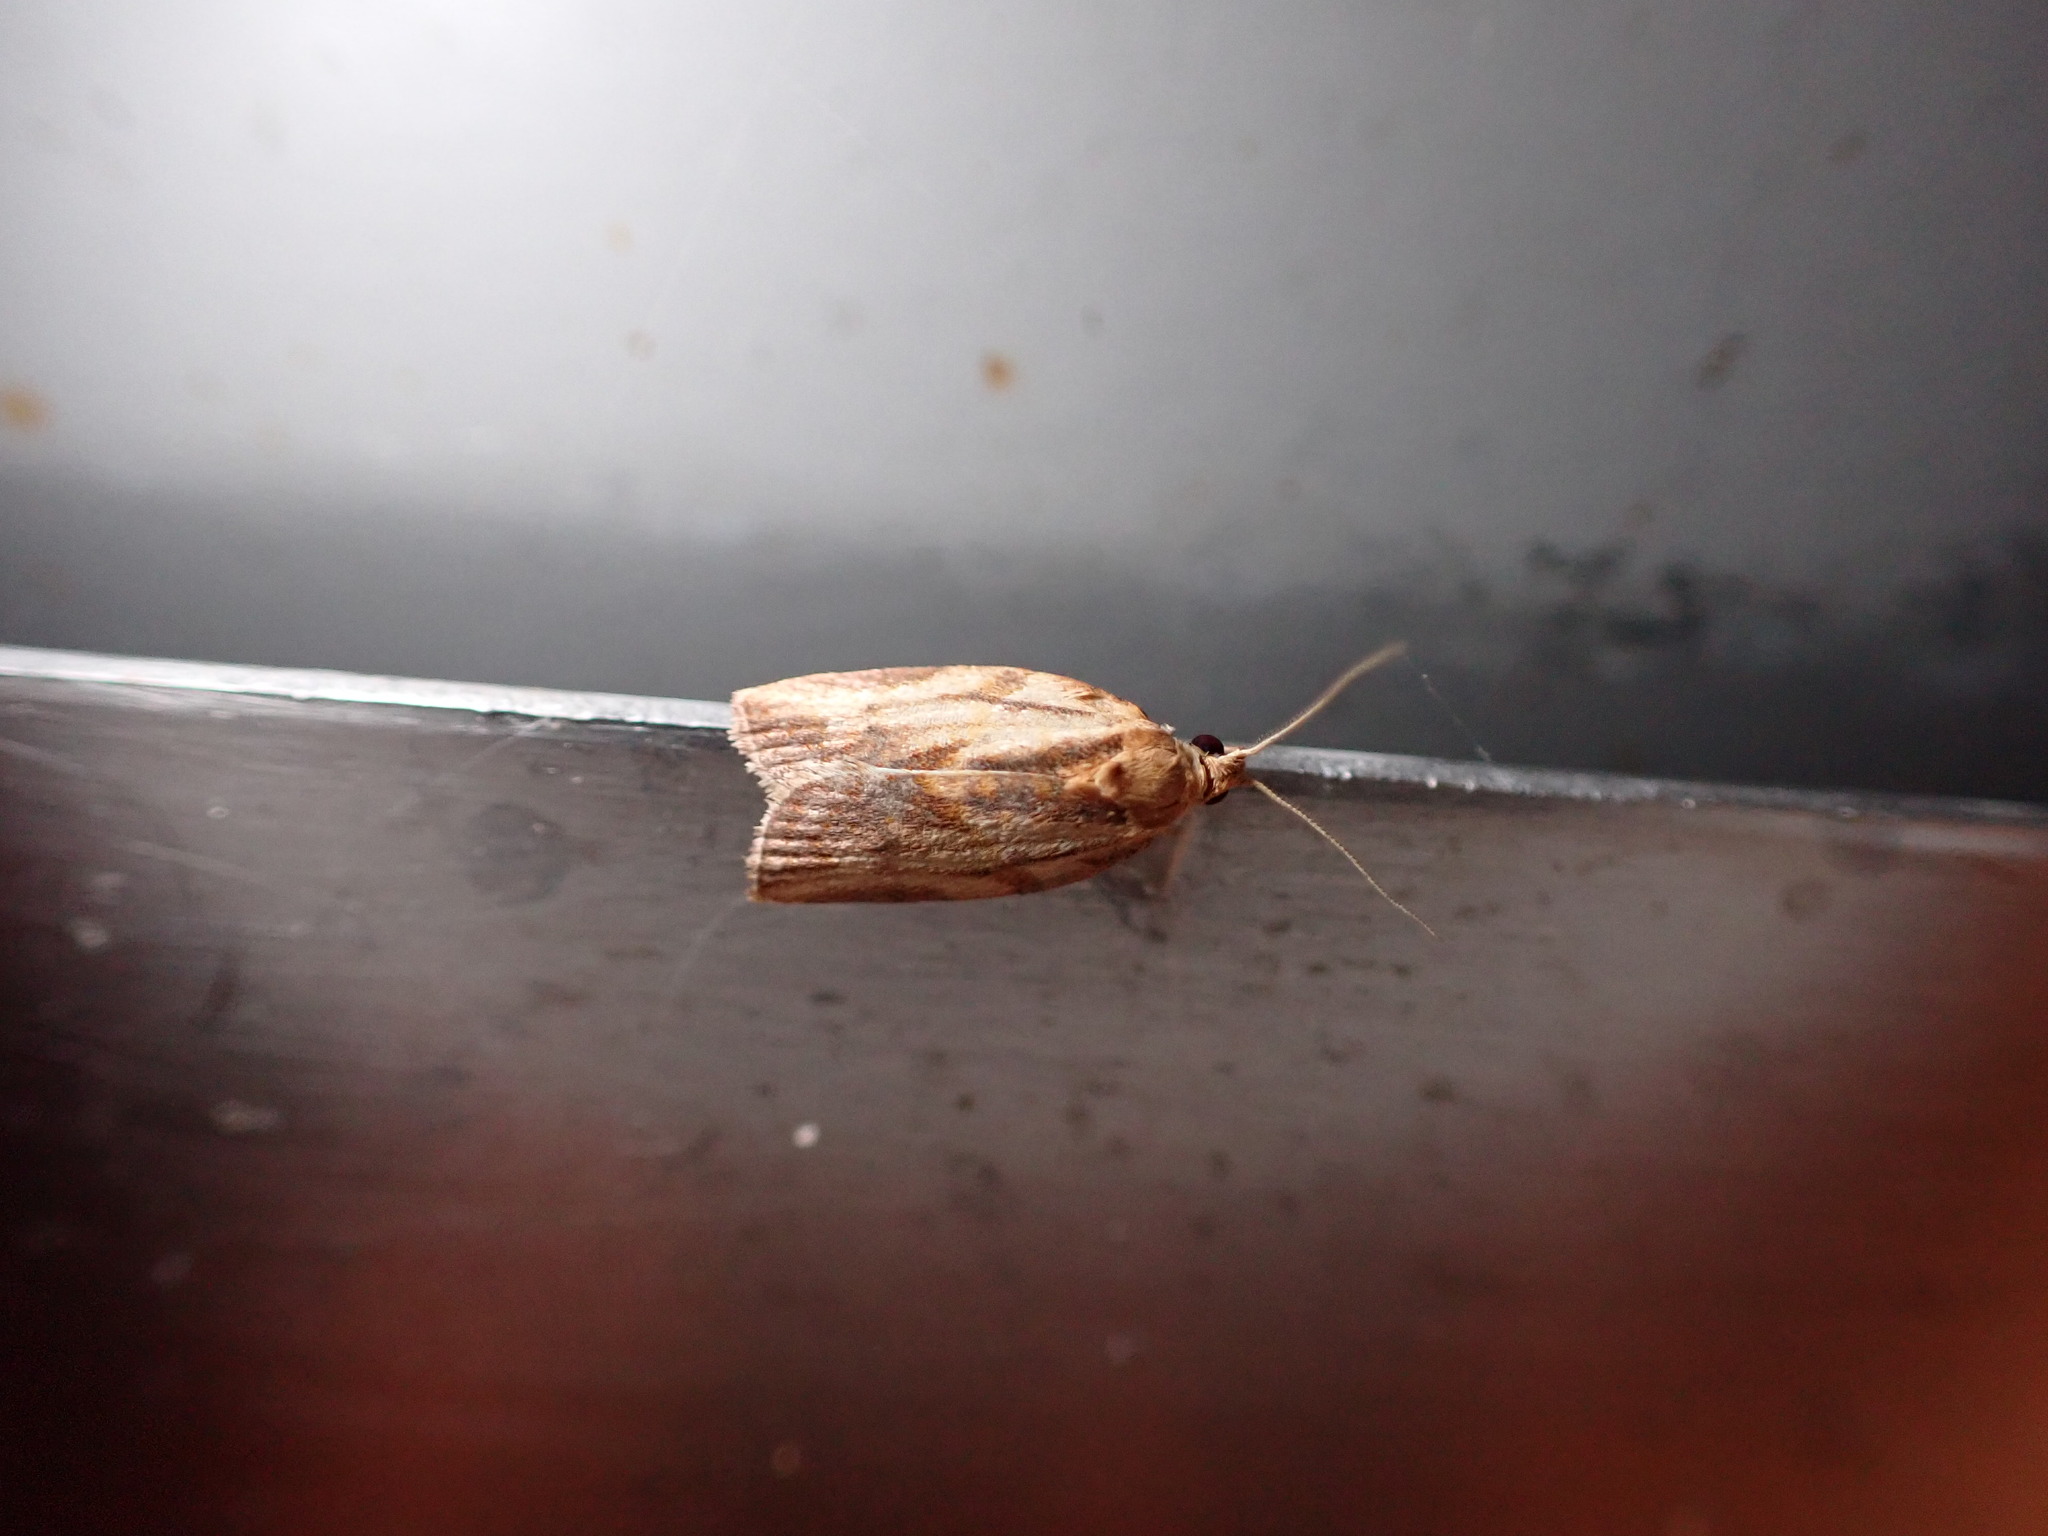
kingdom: Animalia
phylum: Arthropoda
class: Insecta
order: Lepidoptera
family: Tortricidae
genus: Epiphyas
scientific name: Epiphyas postvittana
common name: Light brown apple moth
